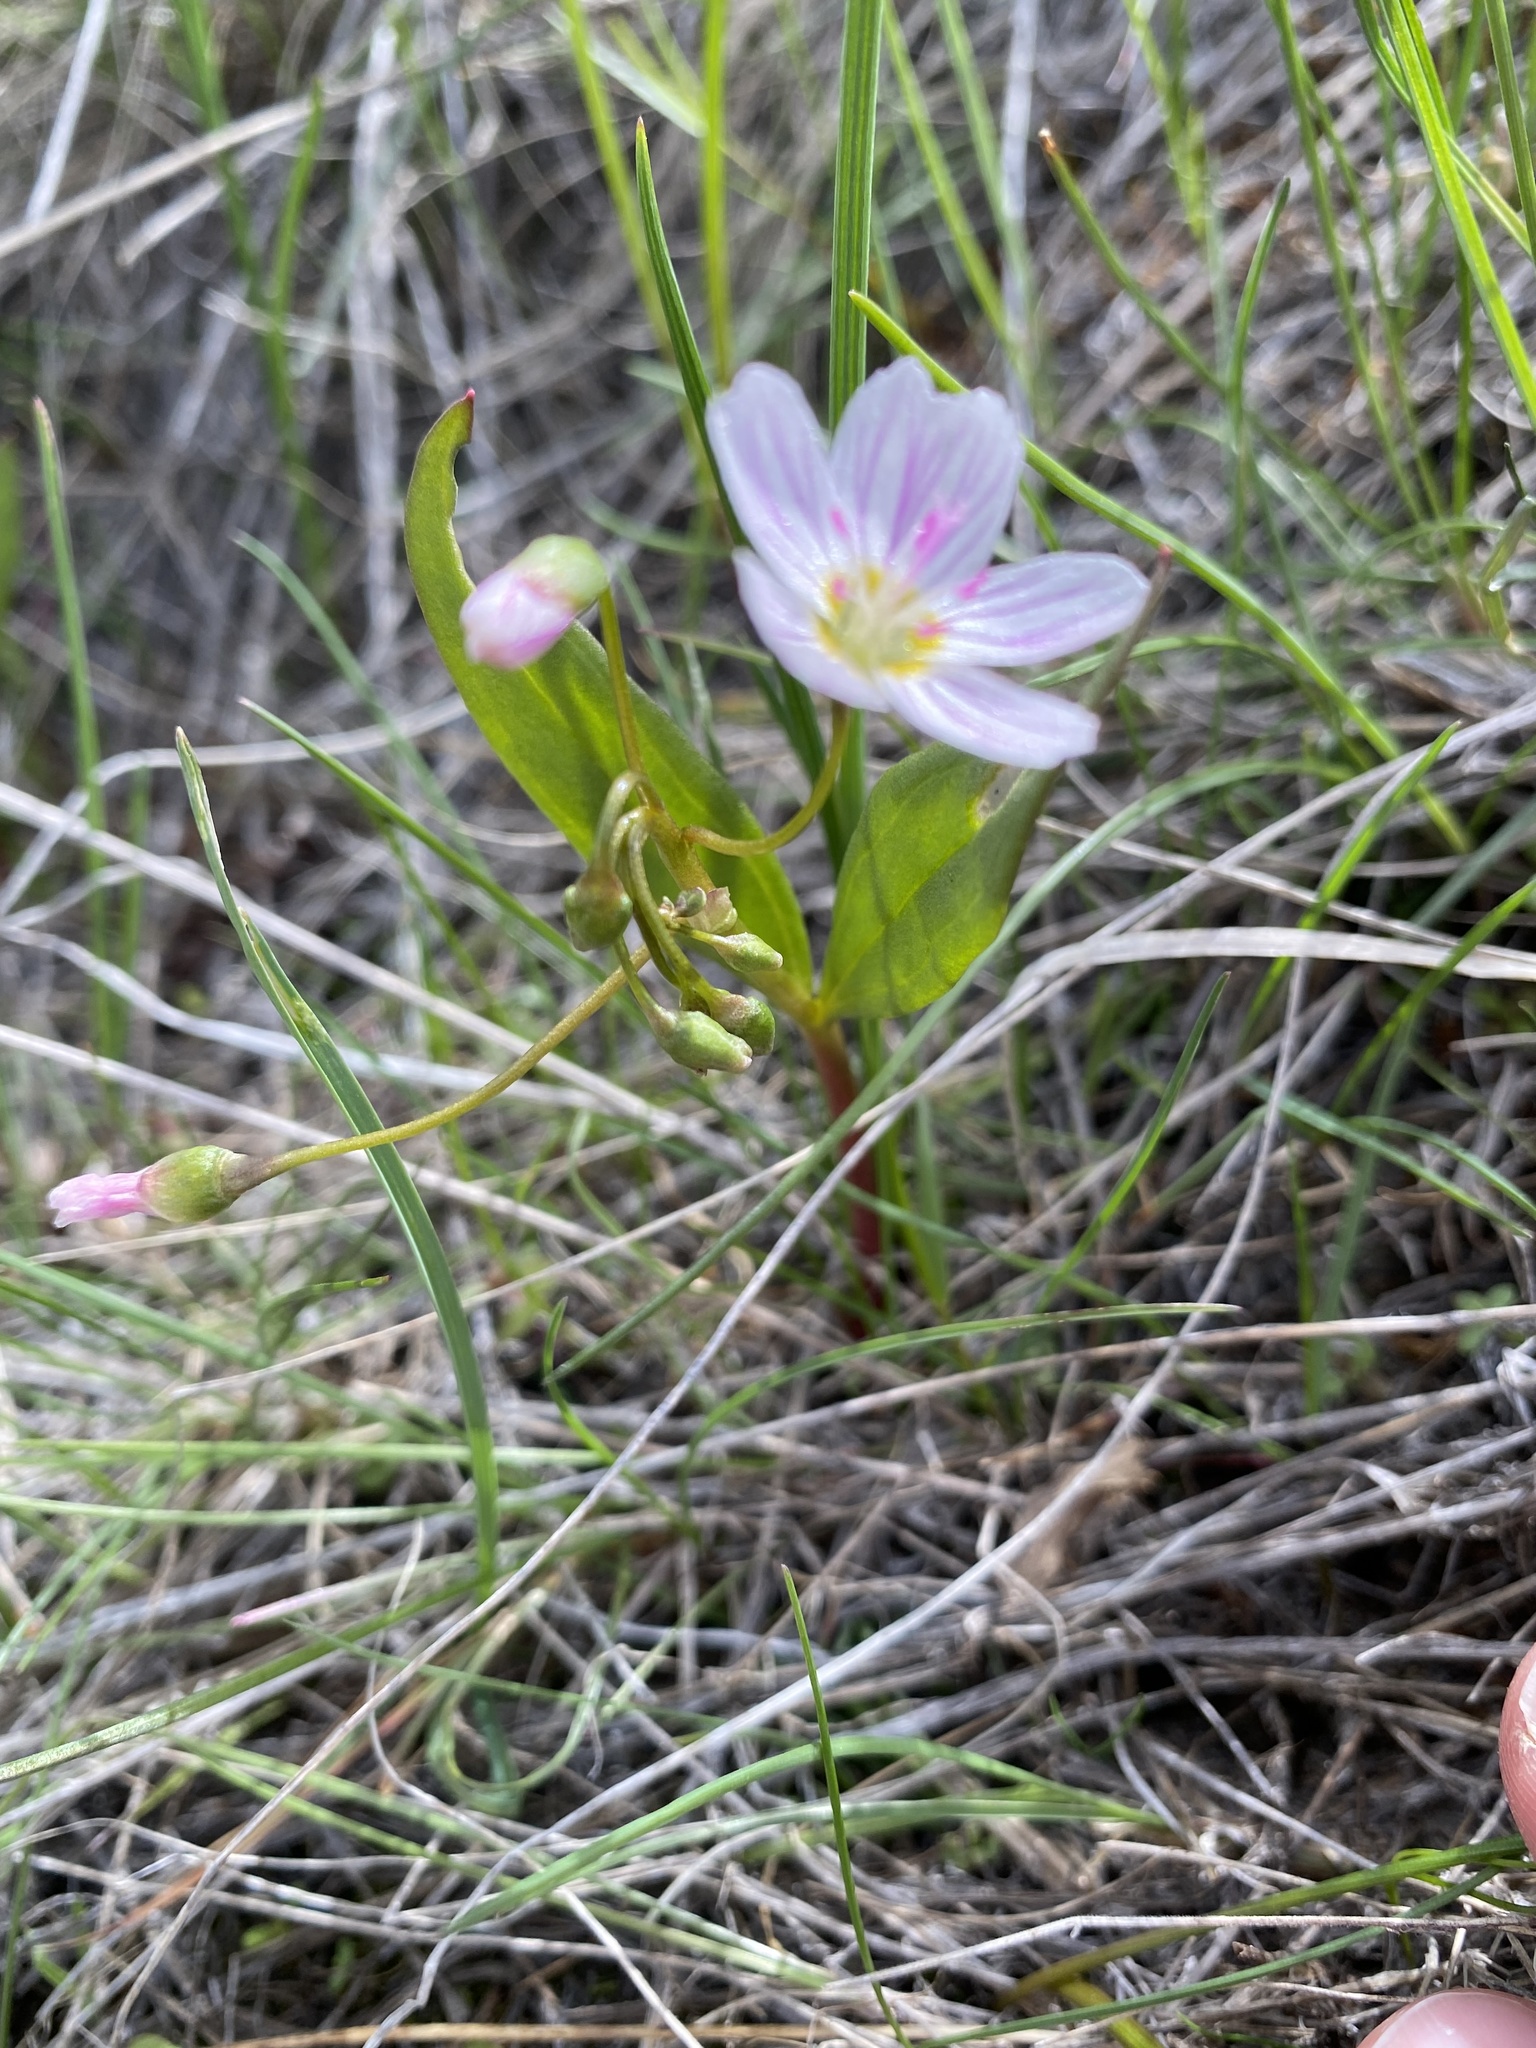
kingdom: Plantae
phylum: Tracheophyta
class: Magnoliopsida
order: Caryophyllales
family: Montiaceae
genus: Claytonia
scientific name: Claytonia lanceolata
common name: Western spring-beauty
